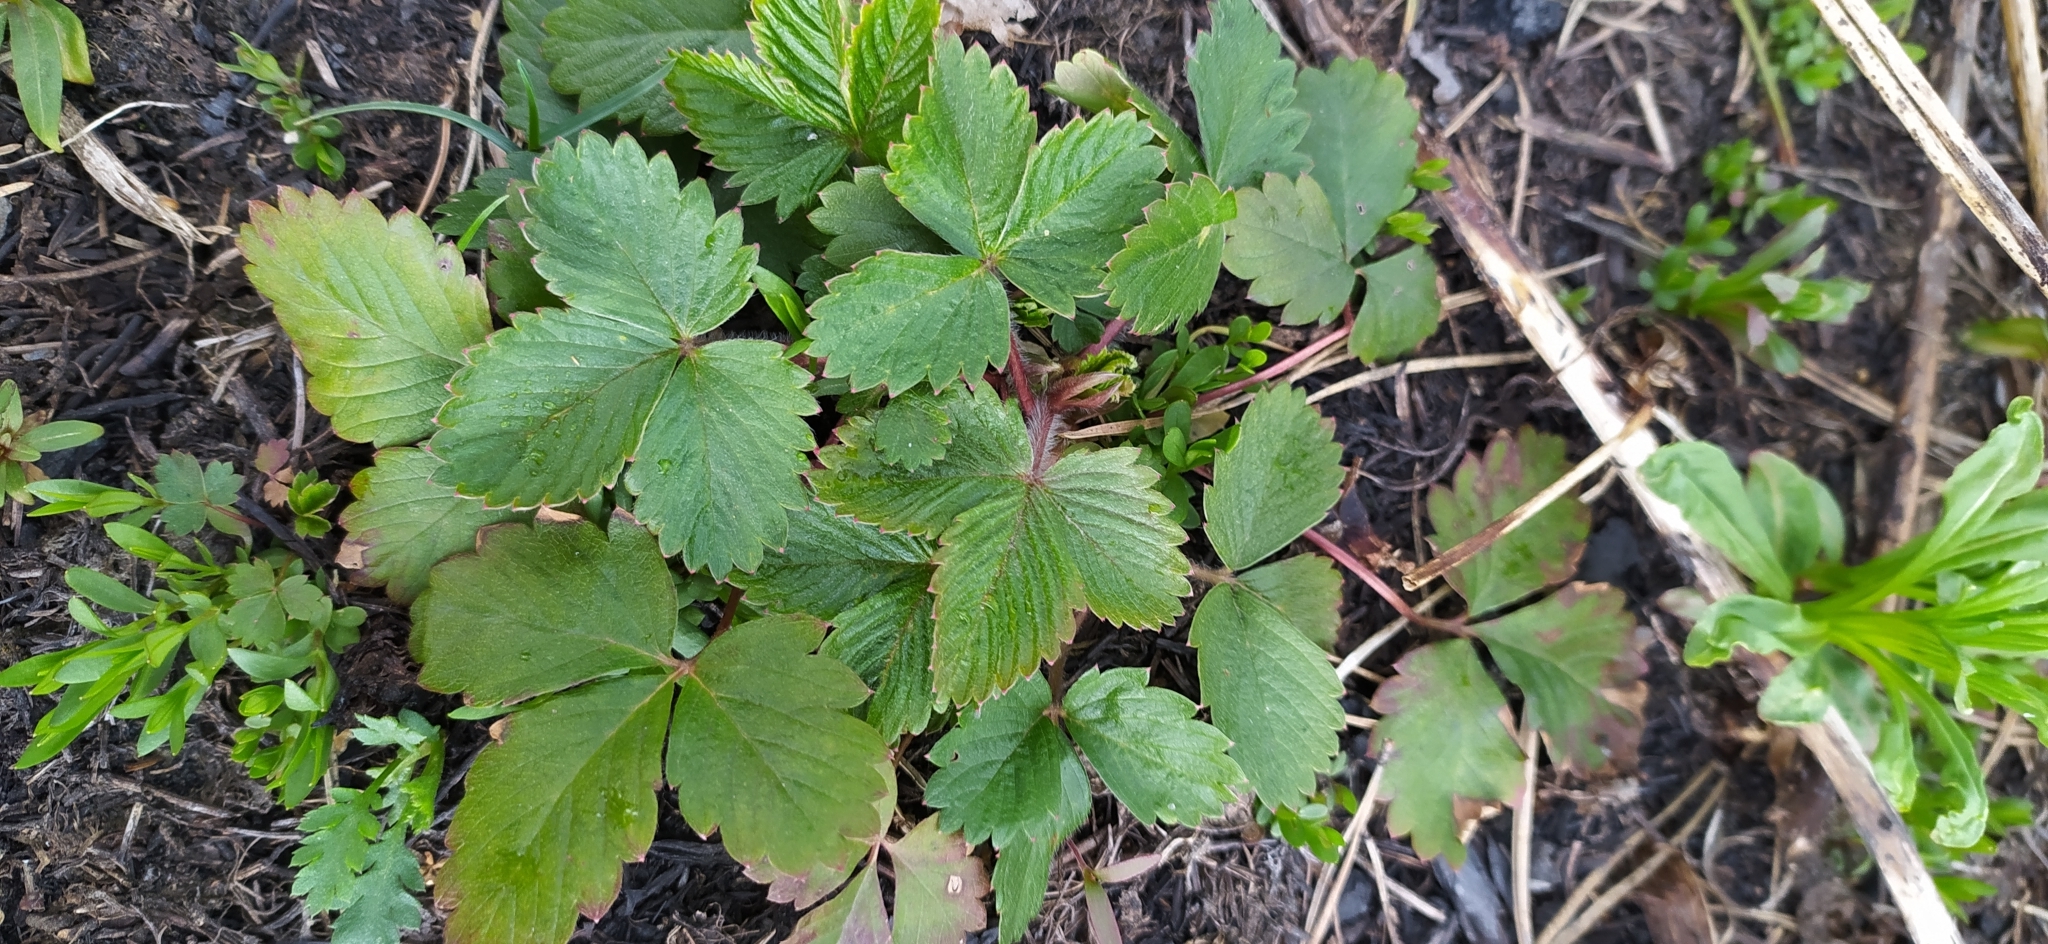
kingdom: Plantae
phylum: Tracheophyta
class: Magnoliopsida
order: Rosales
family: Rosaceae
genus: Fragaria
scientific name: Fragaria vesca
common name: Wild strawberry
